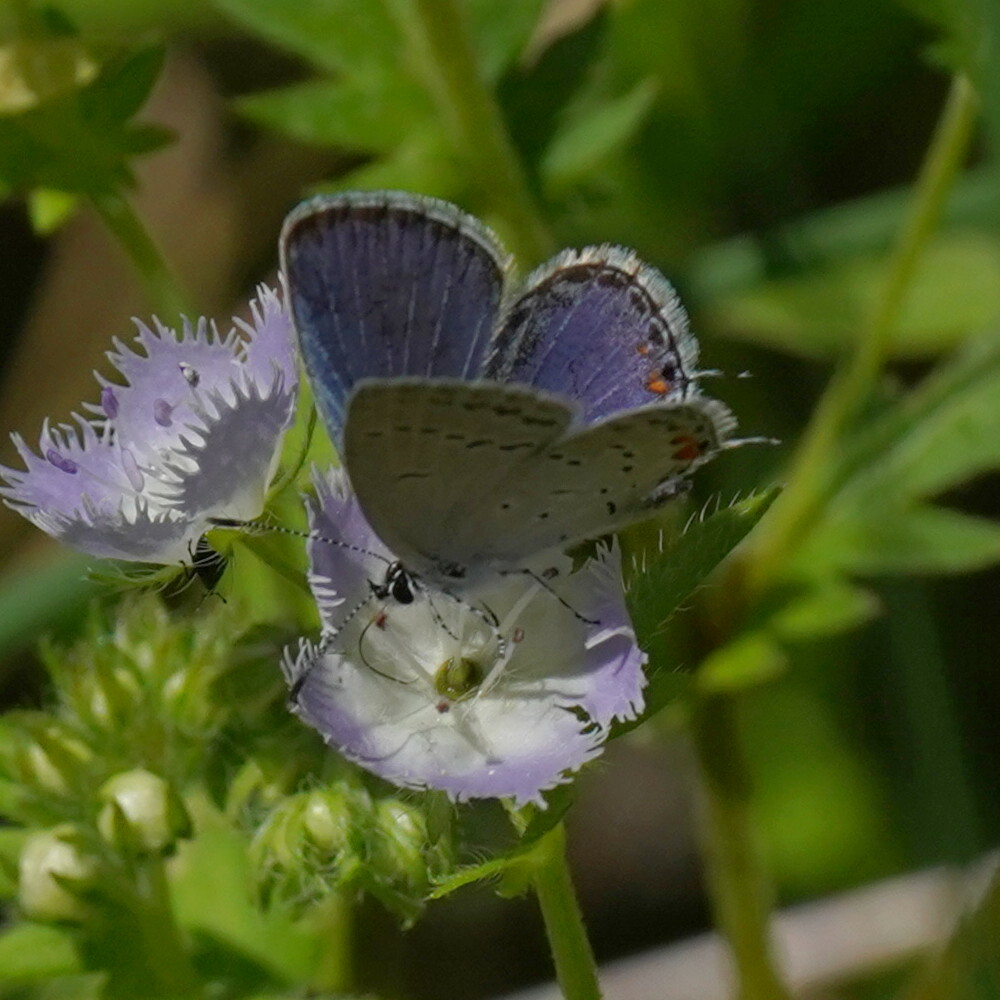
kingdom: Animalia
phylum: Arthropoda
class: Insecta
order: Lepidoptera
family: Lycaenidae
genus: Elkalyce
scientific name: Elkalyce comyntas
